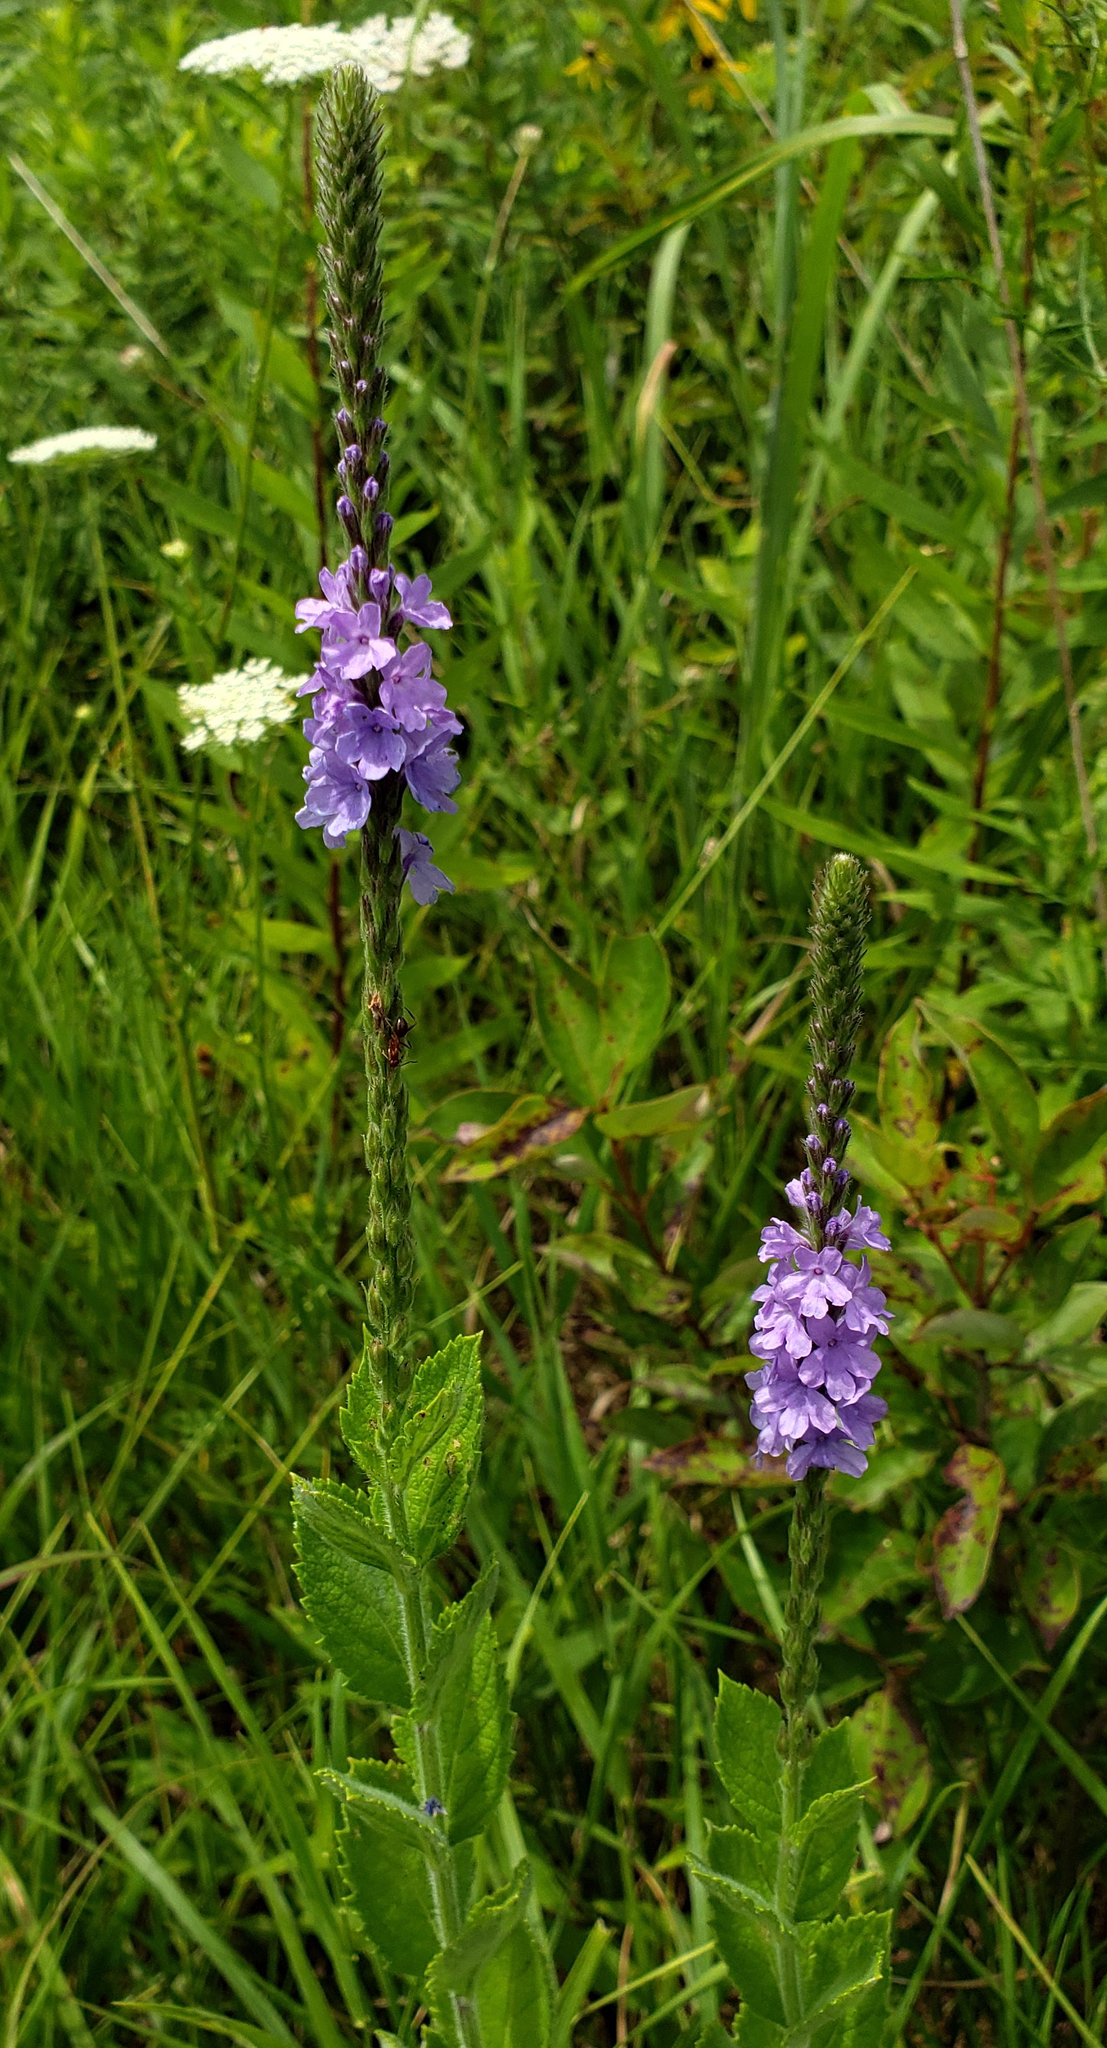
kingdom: Plantae
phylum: Tracheophyta
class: Magnoliopsida
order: Lamiales
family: Verbenaceae
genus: Verbena
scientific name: Verbena stricta
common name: Hoary vervain
